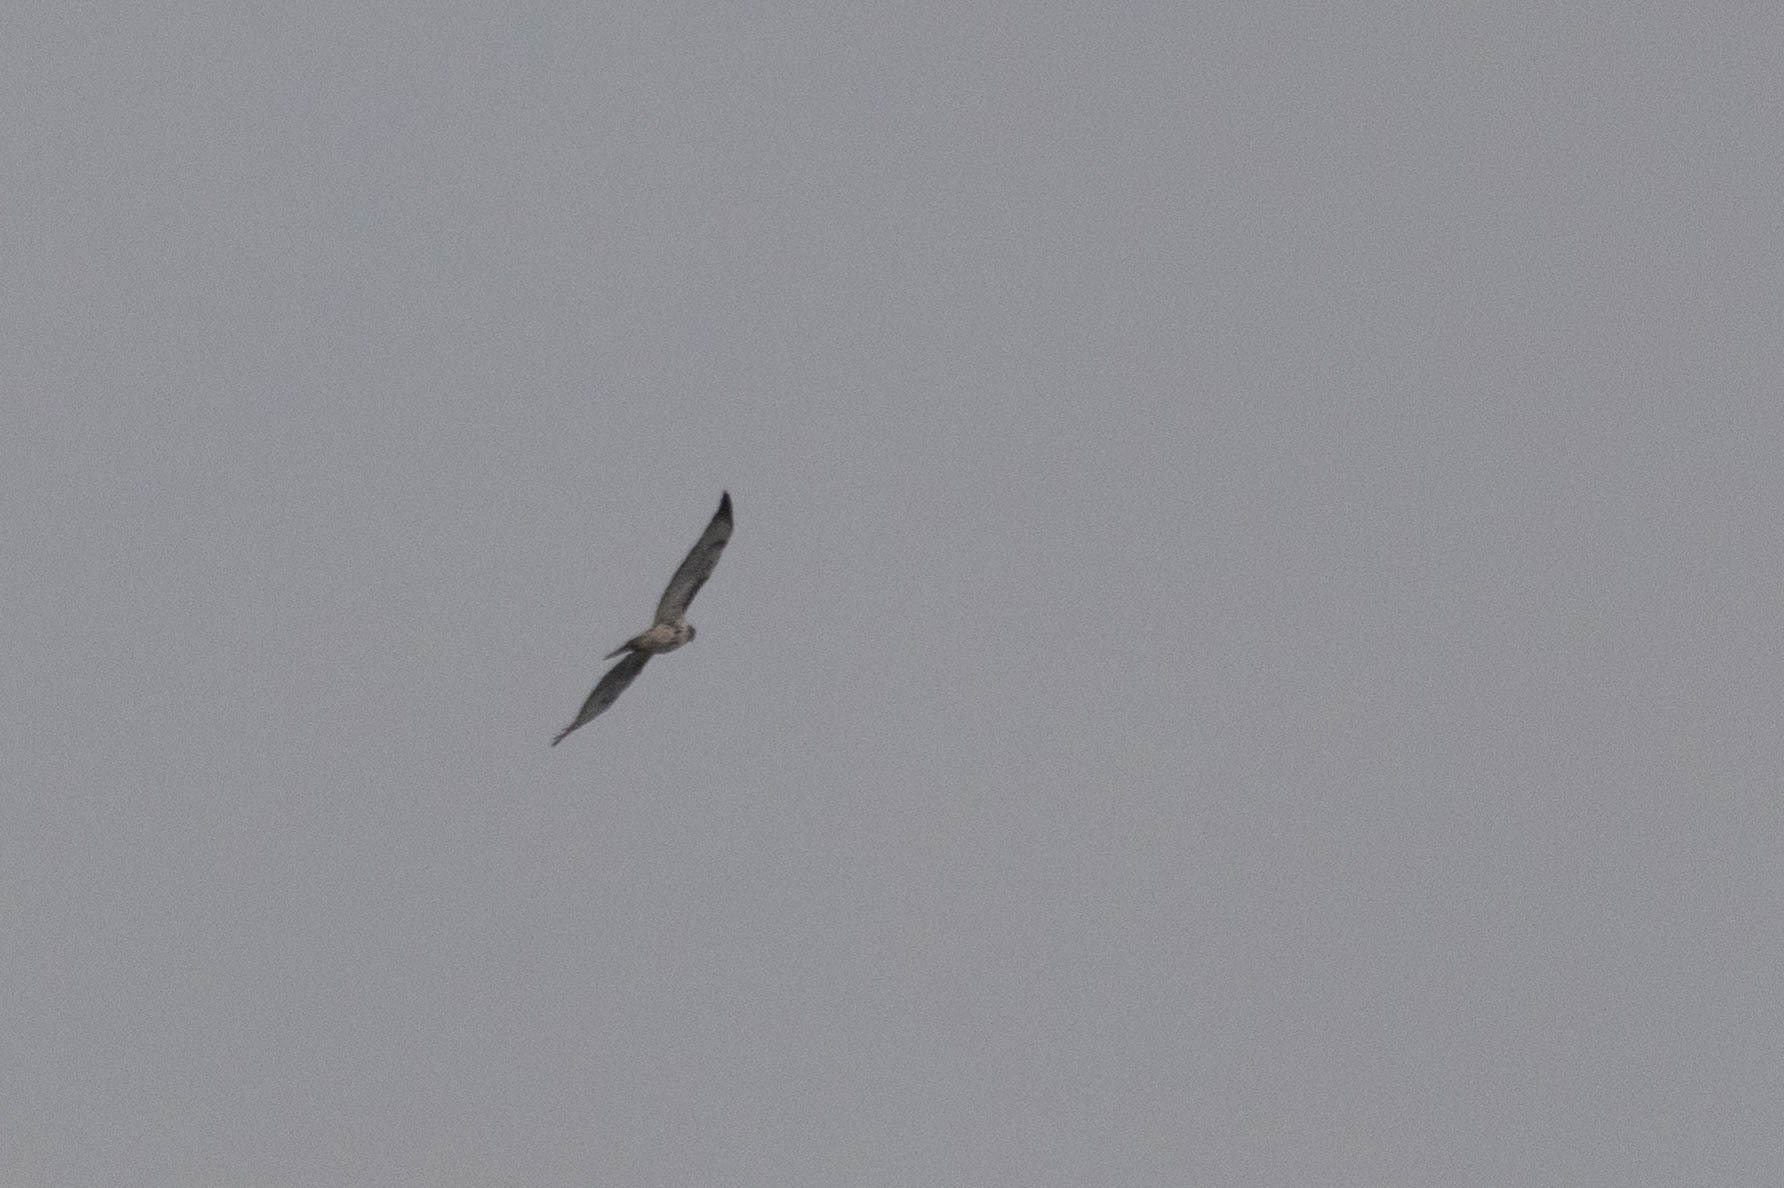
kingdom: Animalia
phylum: Chordata
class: Aves
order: Accipitriformes
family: Accipitridae
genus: Buteo
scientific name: Buteo jamaicensis
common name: Red-tailed hawk
